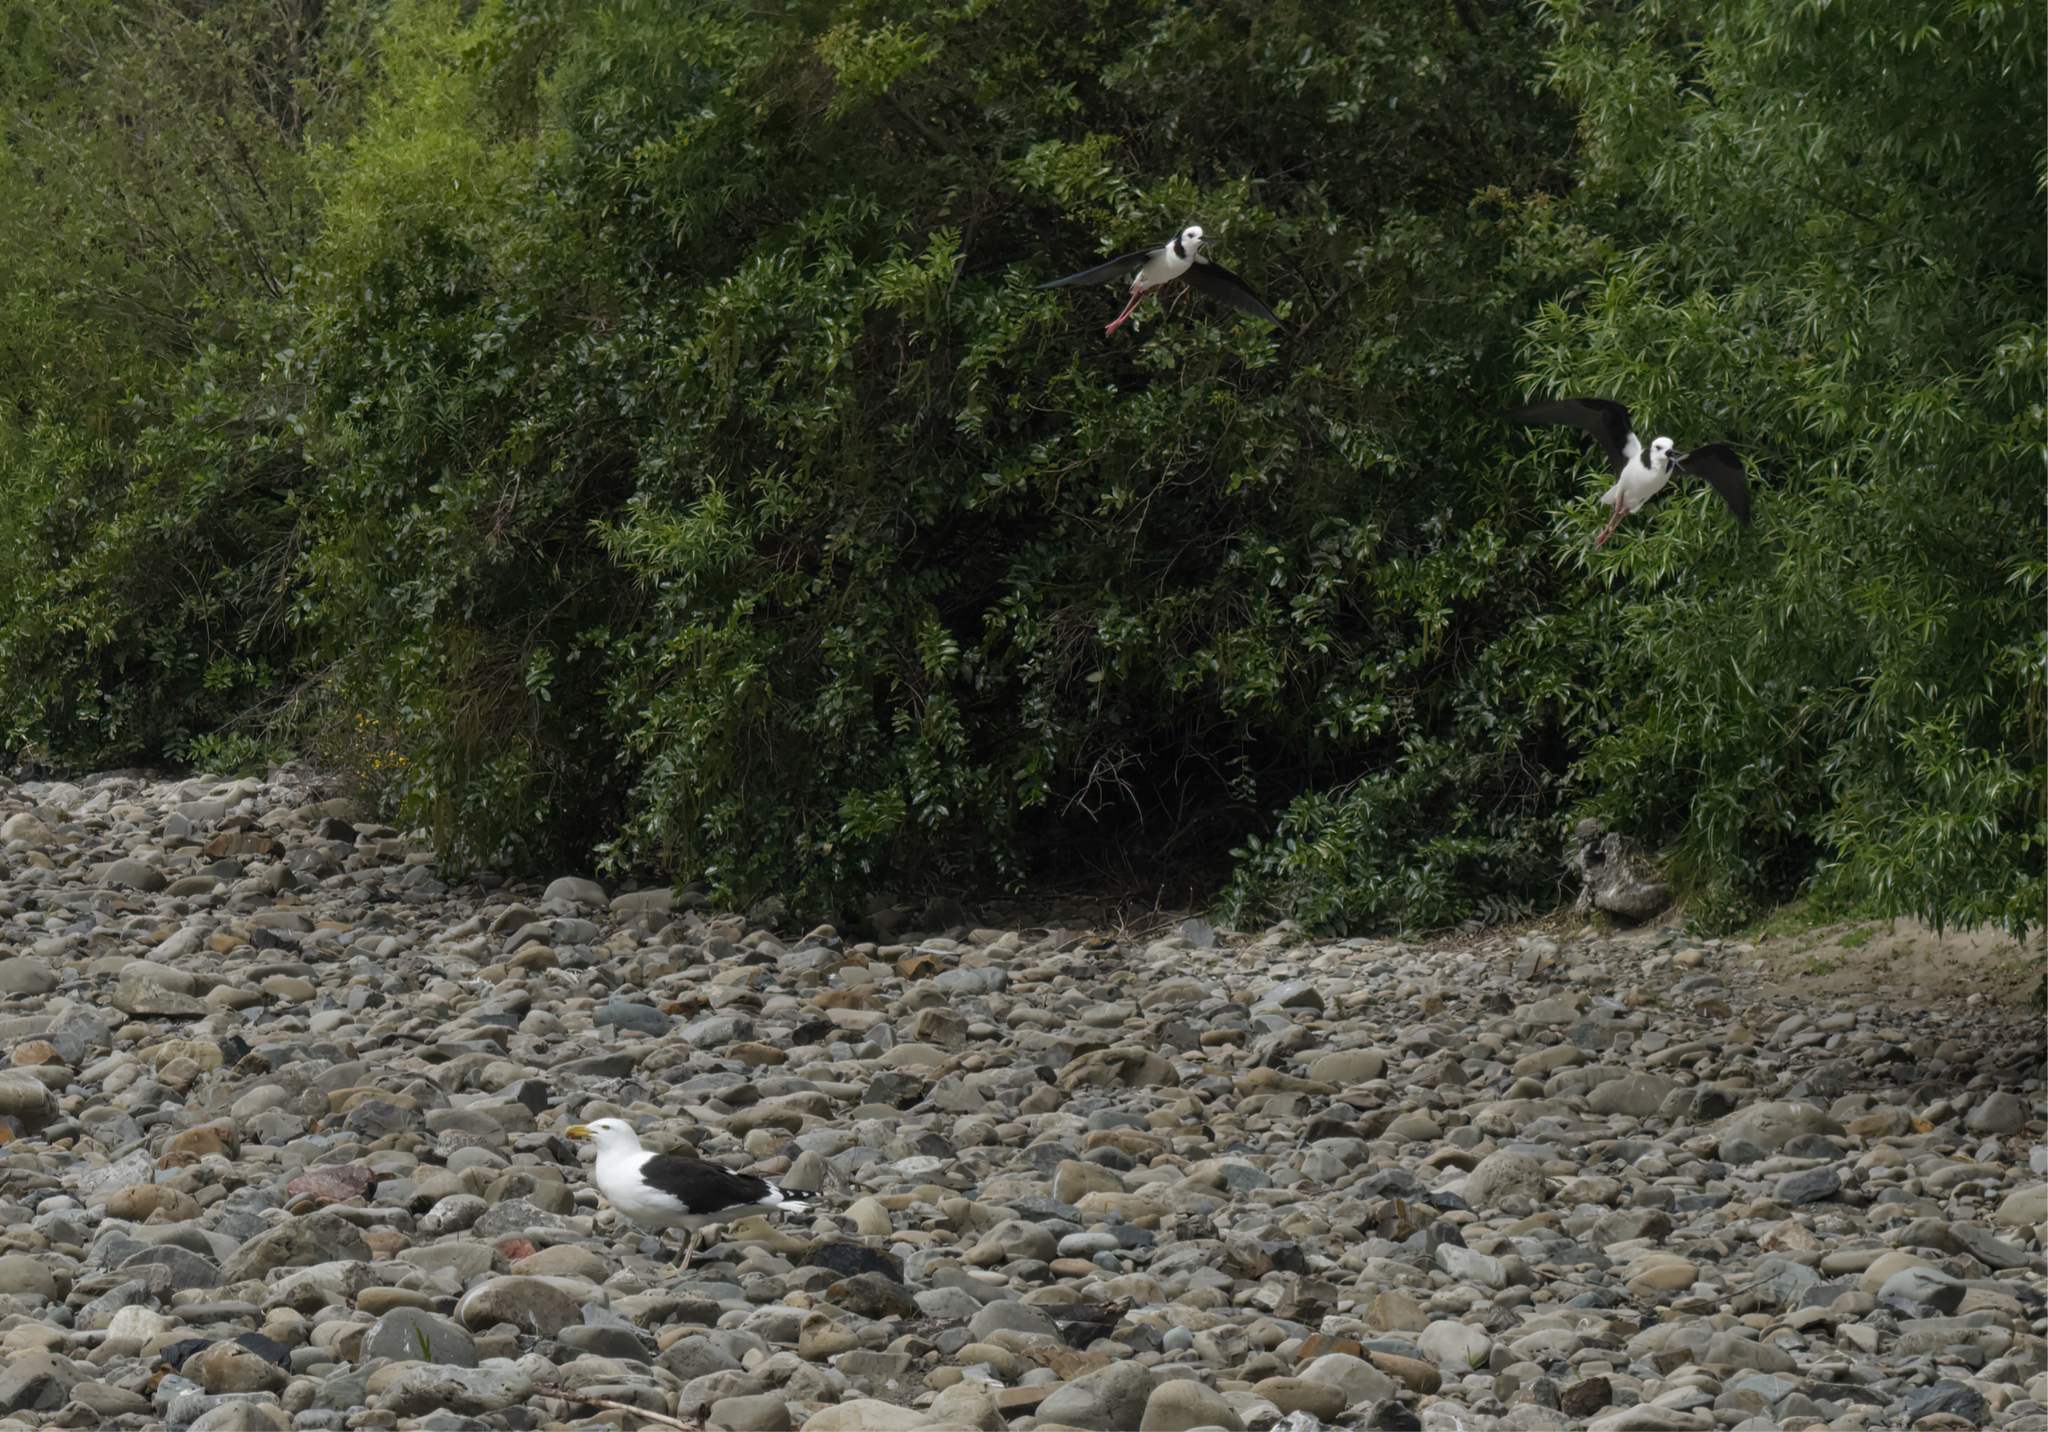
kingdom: Animalia
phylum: Chordata
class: Aves
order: Charadriiformes
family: Recurvirostridae
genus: Himantopus
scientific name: Himantopus leucocephalus
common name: White-headed stilt
